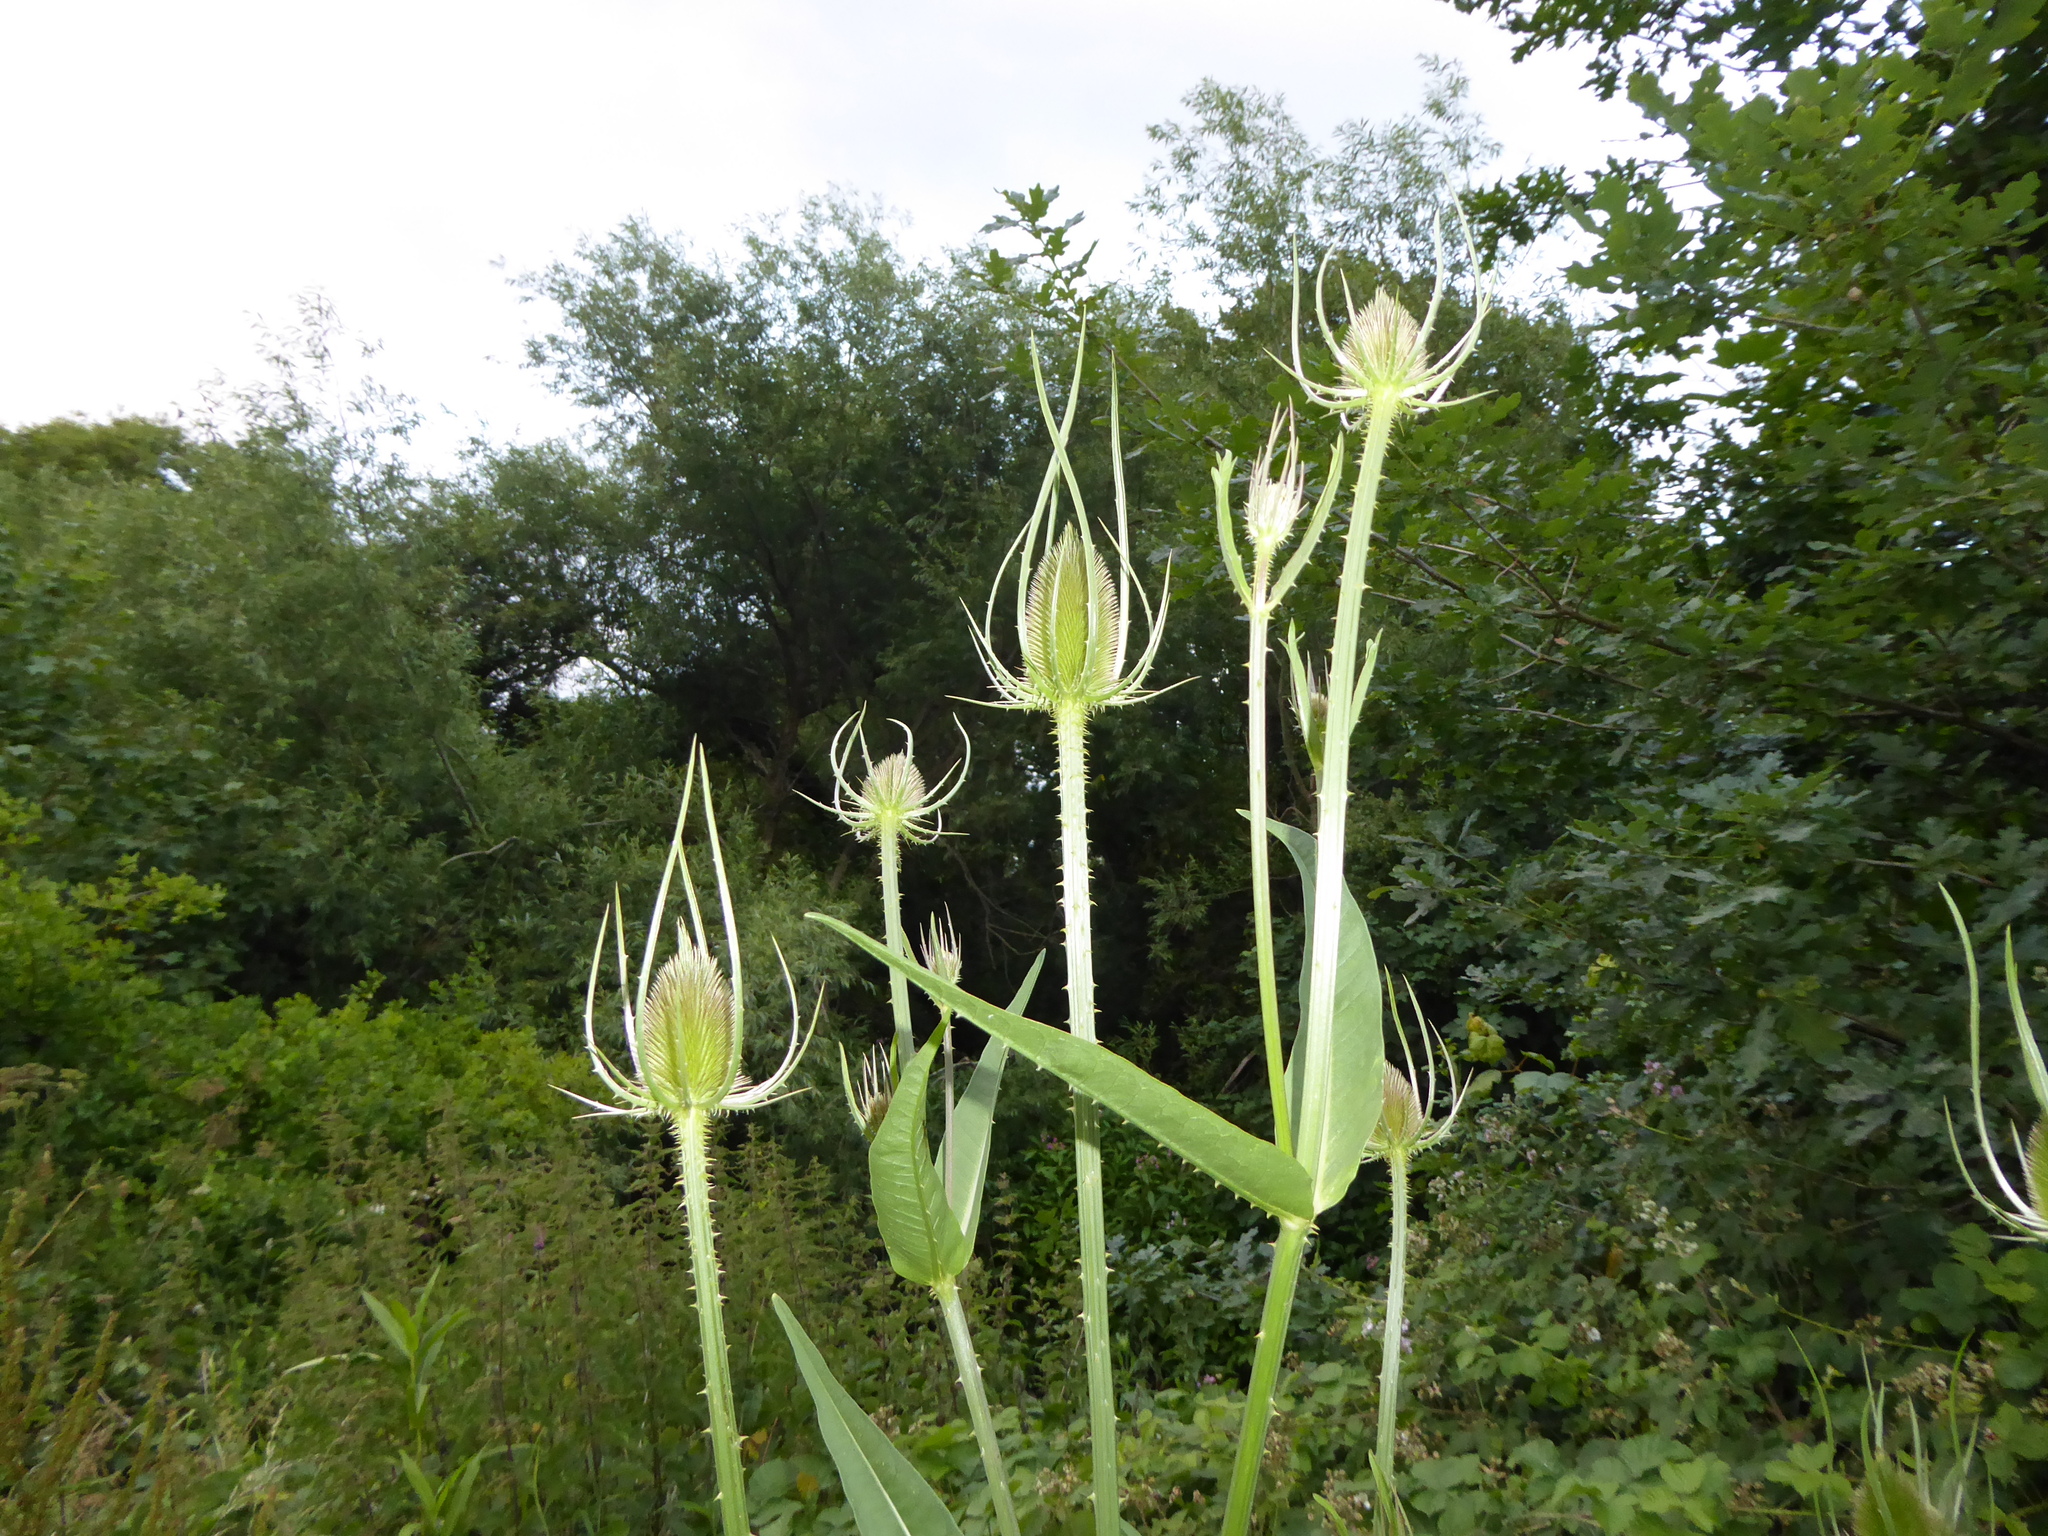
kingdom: Plantae
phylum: Tracheophyta
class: Magnoliopsida
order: Dipsacales
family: Caprifoliaceae
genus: Dipsacus
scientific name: Dipsacus fullonum
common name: Teasel
